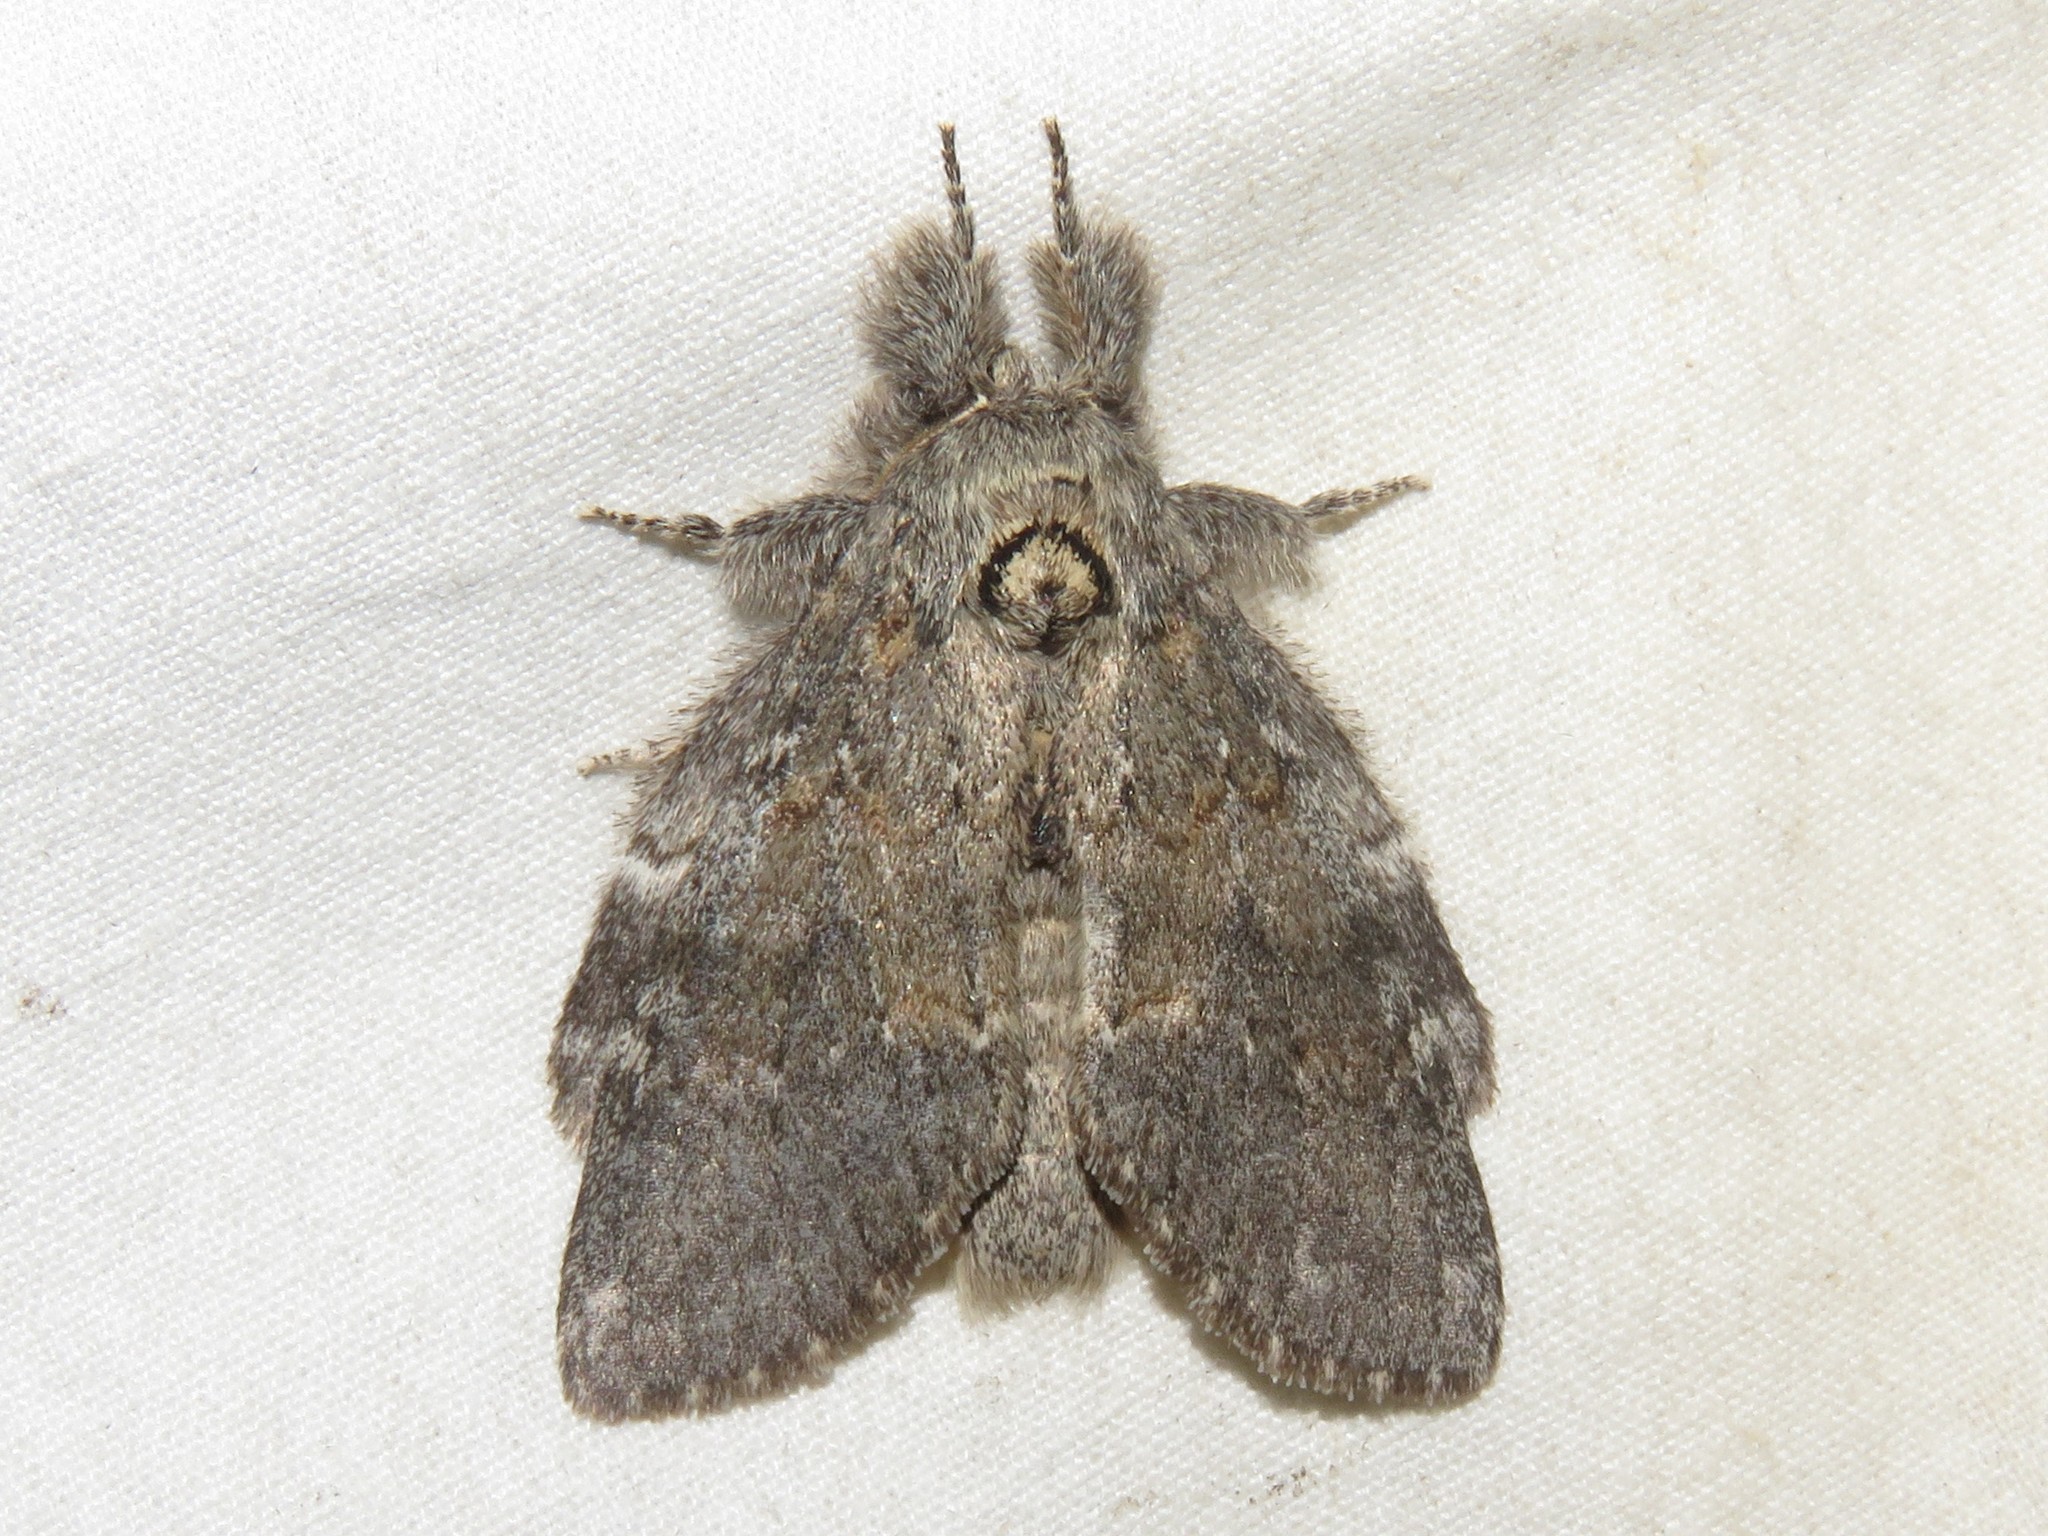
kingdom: Animalia
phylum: Arthropoda
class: Insecta
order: Lepidoptera
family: Notodontidae
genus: Peridea
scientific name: Peridea angulosa
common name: Angulose prominent
